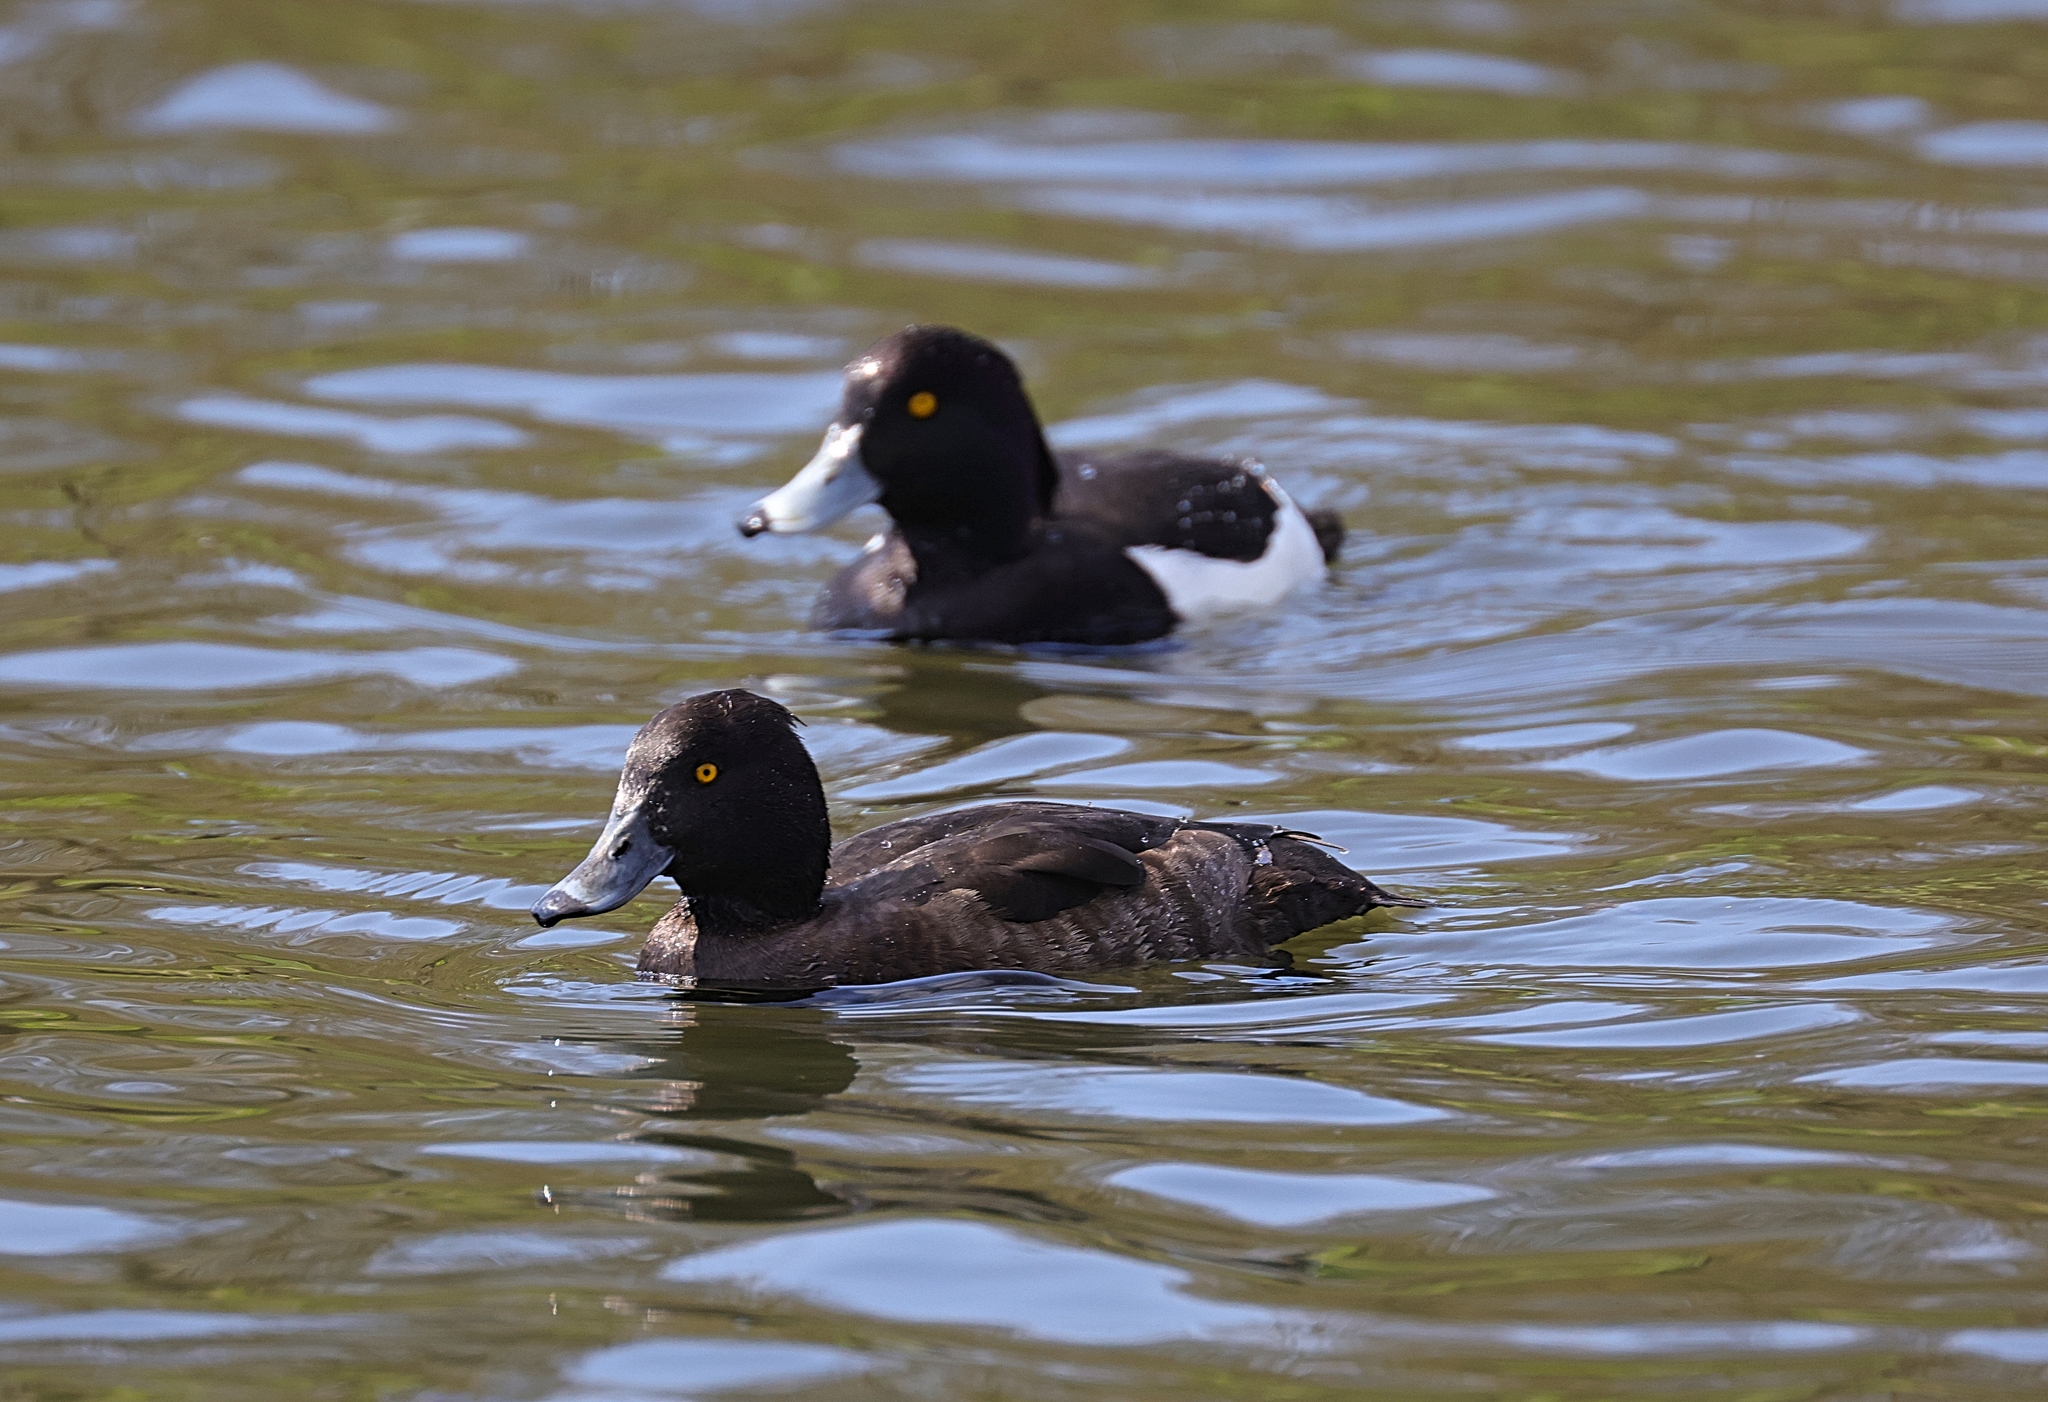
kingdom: Animalia
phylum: Chordata
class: Aves
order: Anseriformes
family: Anatidae
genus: Aythya
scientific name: Aythya fuligula
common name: Tufted duck
